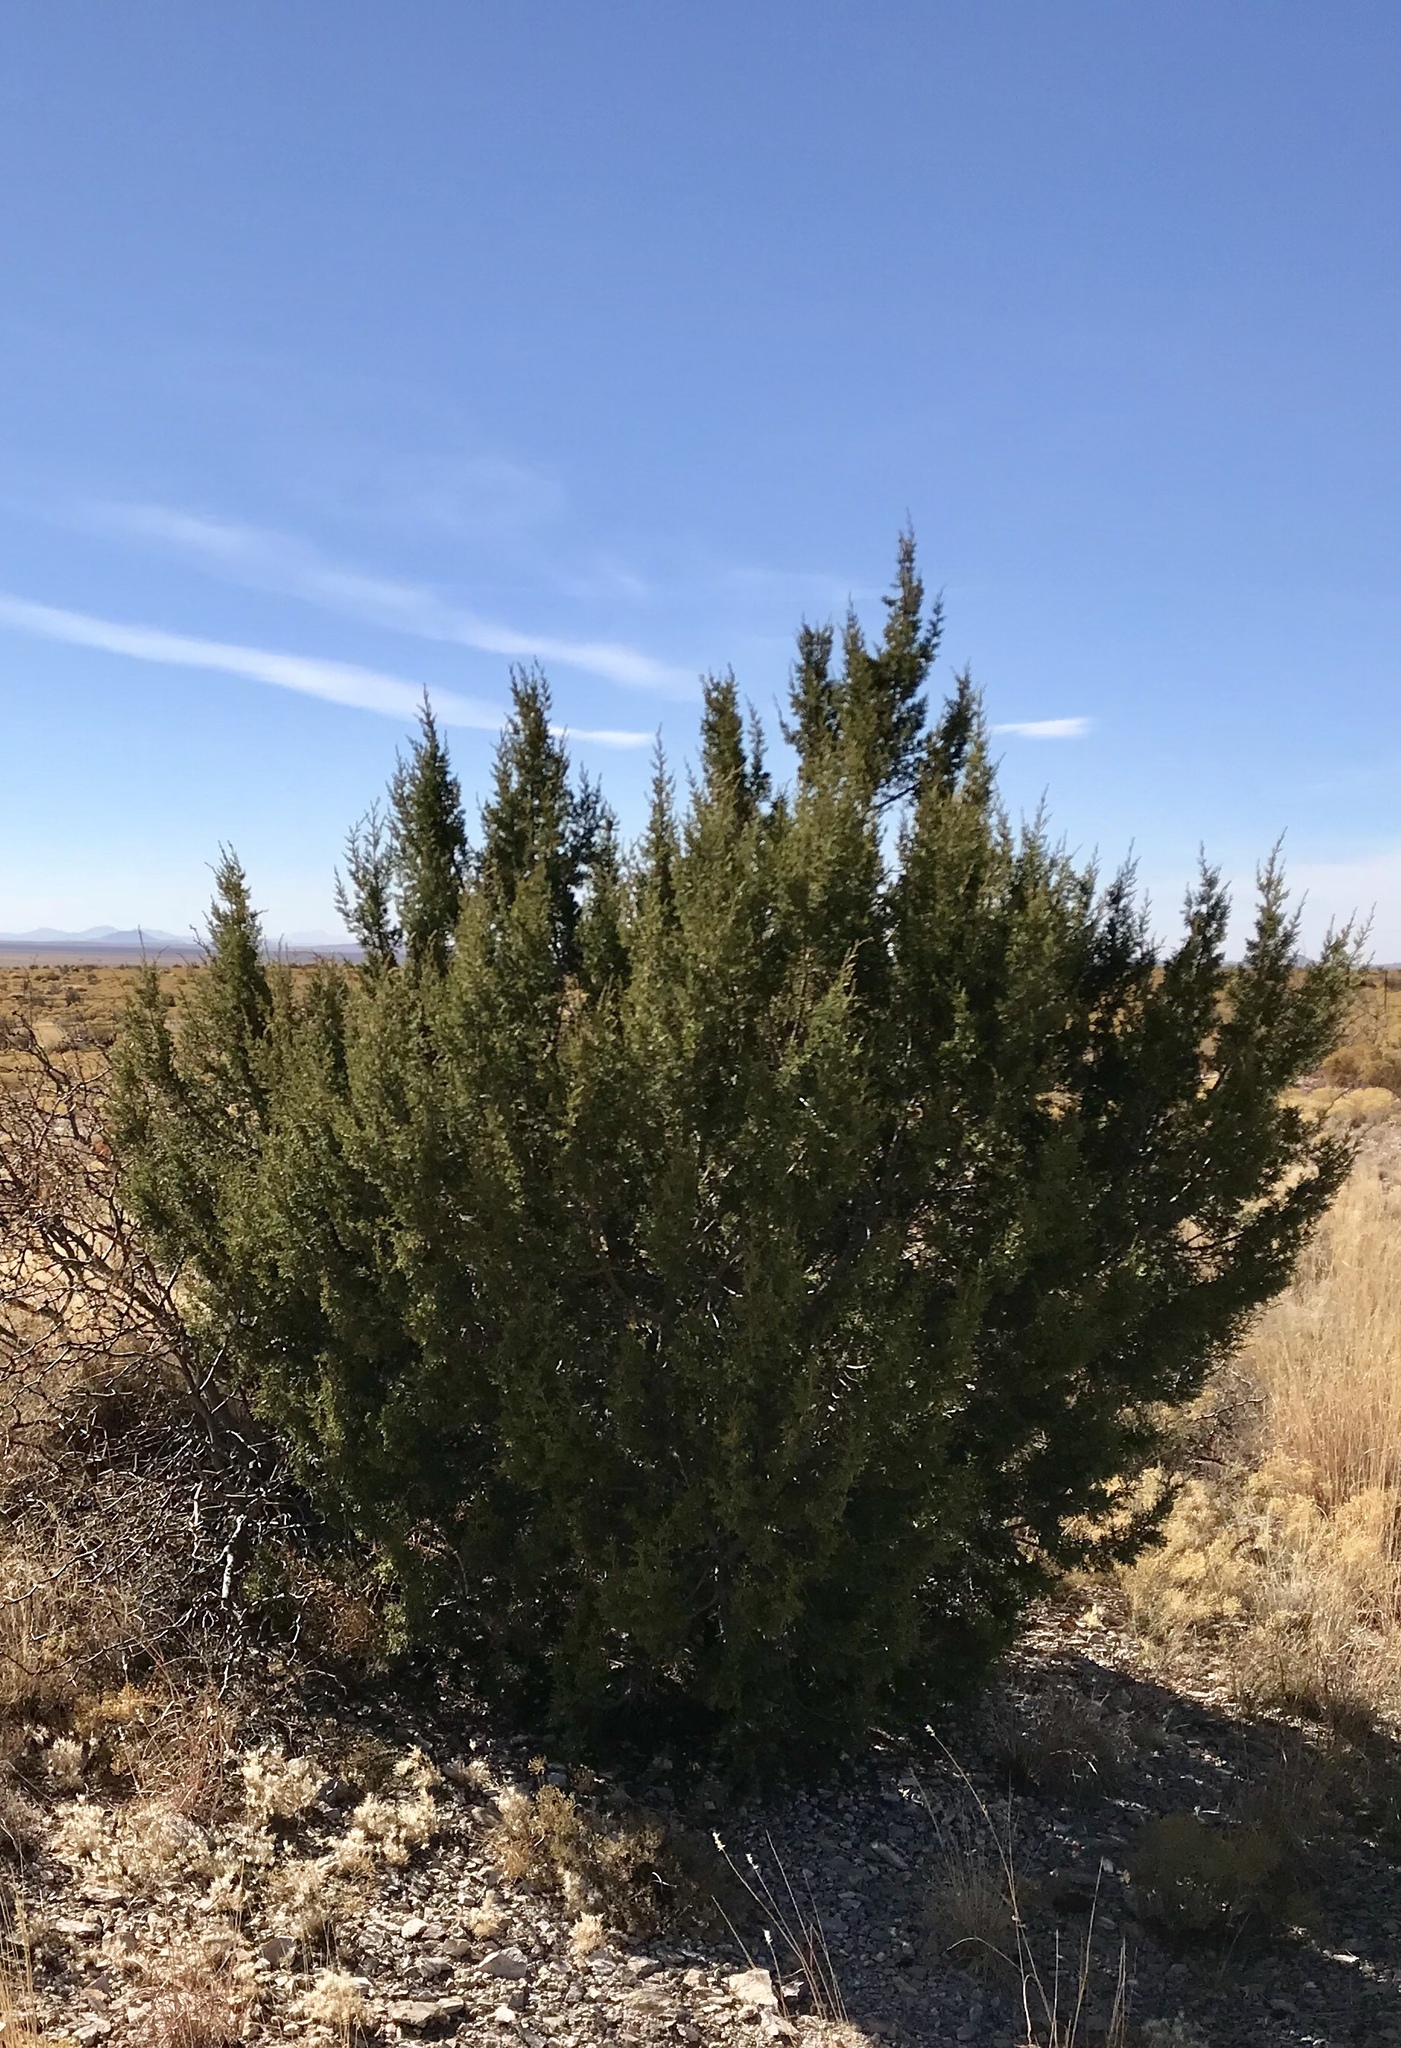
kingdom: Plantae
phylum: Tracheophyta
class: Pinopsida
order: Pinales
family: Cupressaceae
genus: Juniperus
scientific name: Juniperus monosperma
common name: One-seed juniper
